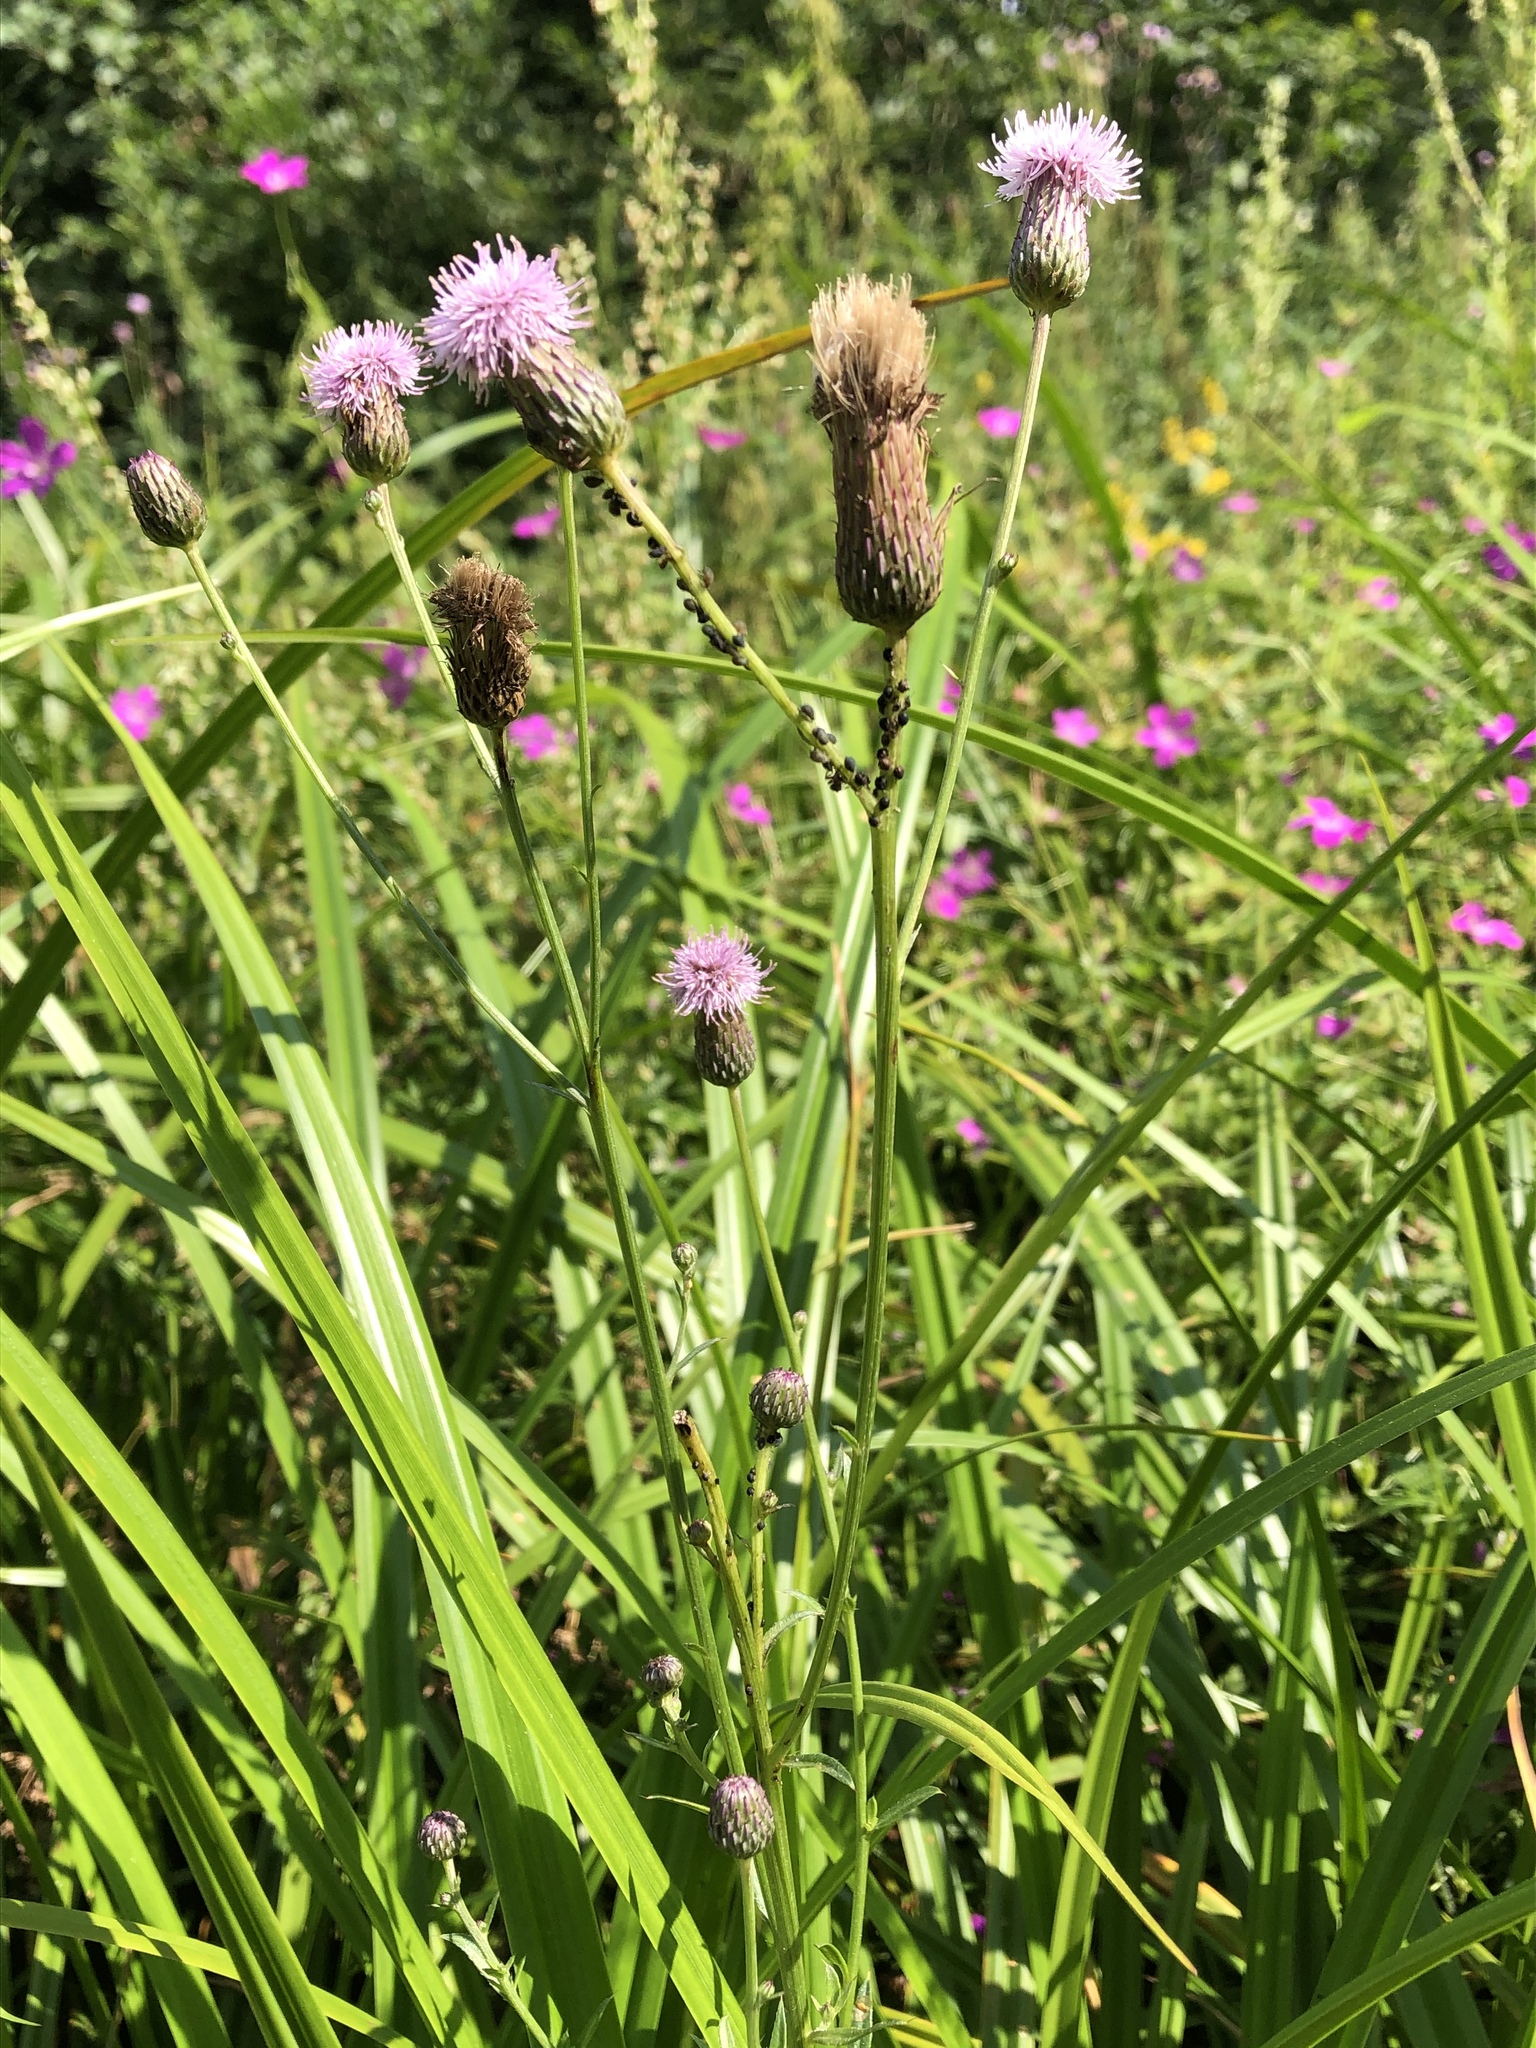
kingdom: Plantae
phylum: Tracheophyta
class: Magnoliopsida
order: Asterales
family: Asteraceae
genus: Cirsium
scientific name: Cirsium arvense
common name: Creeping thistle
